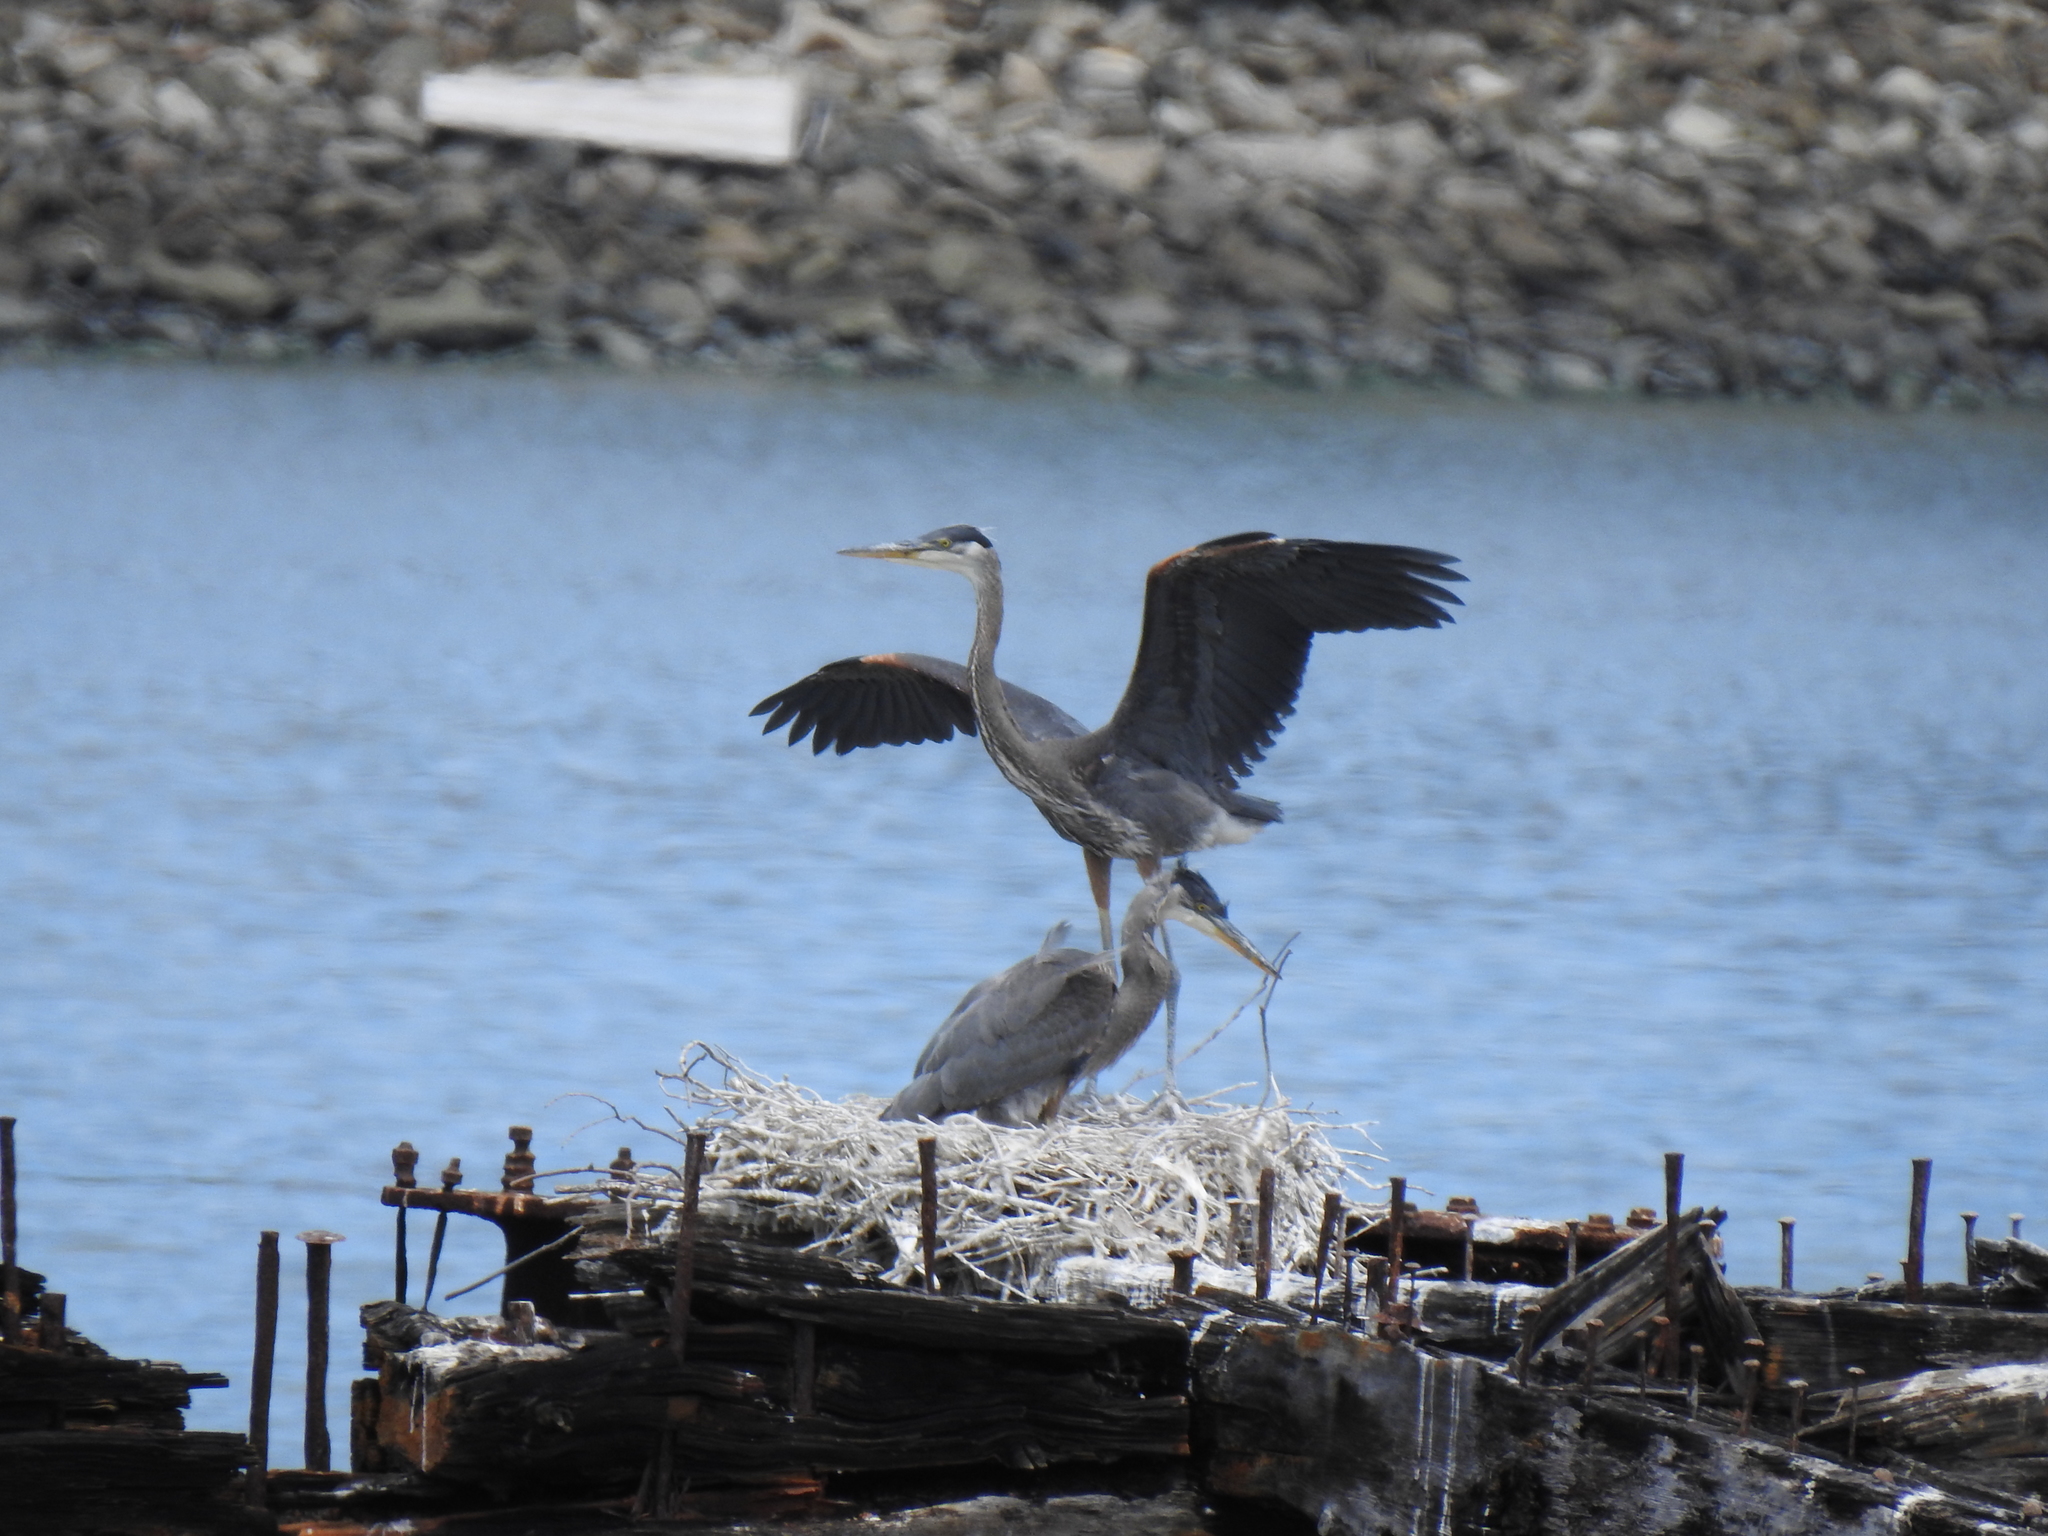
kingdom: Animalia
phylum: Chordata
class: Aves
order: Pelecaniformes
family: Ardeidae
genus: Ardea
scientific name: Ardea herodias
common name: Great blue heron
